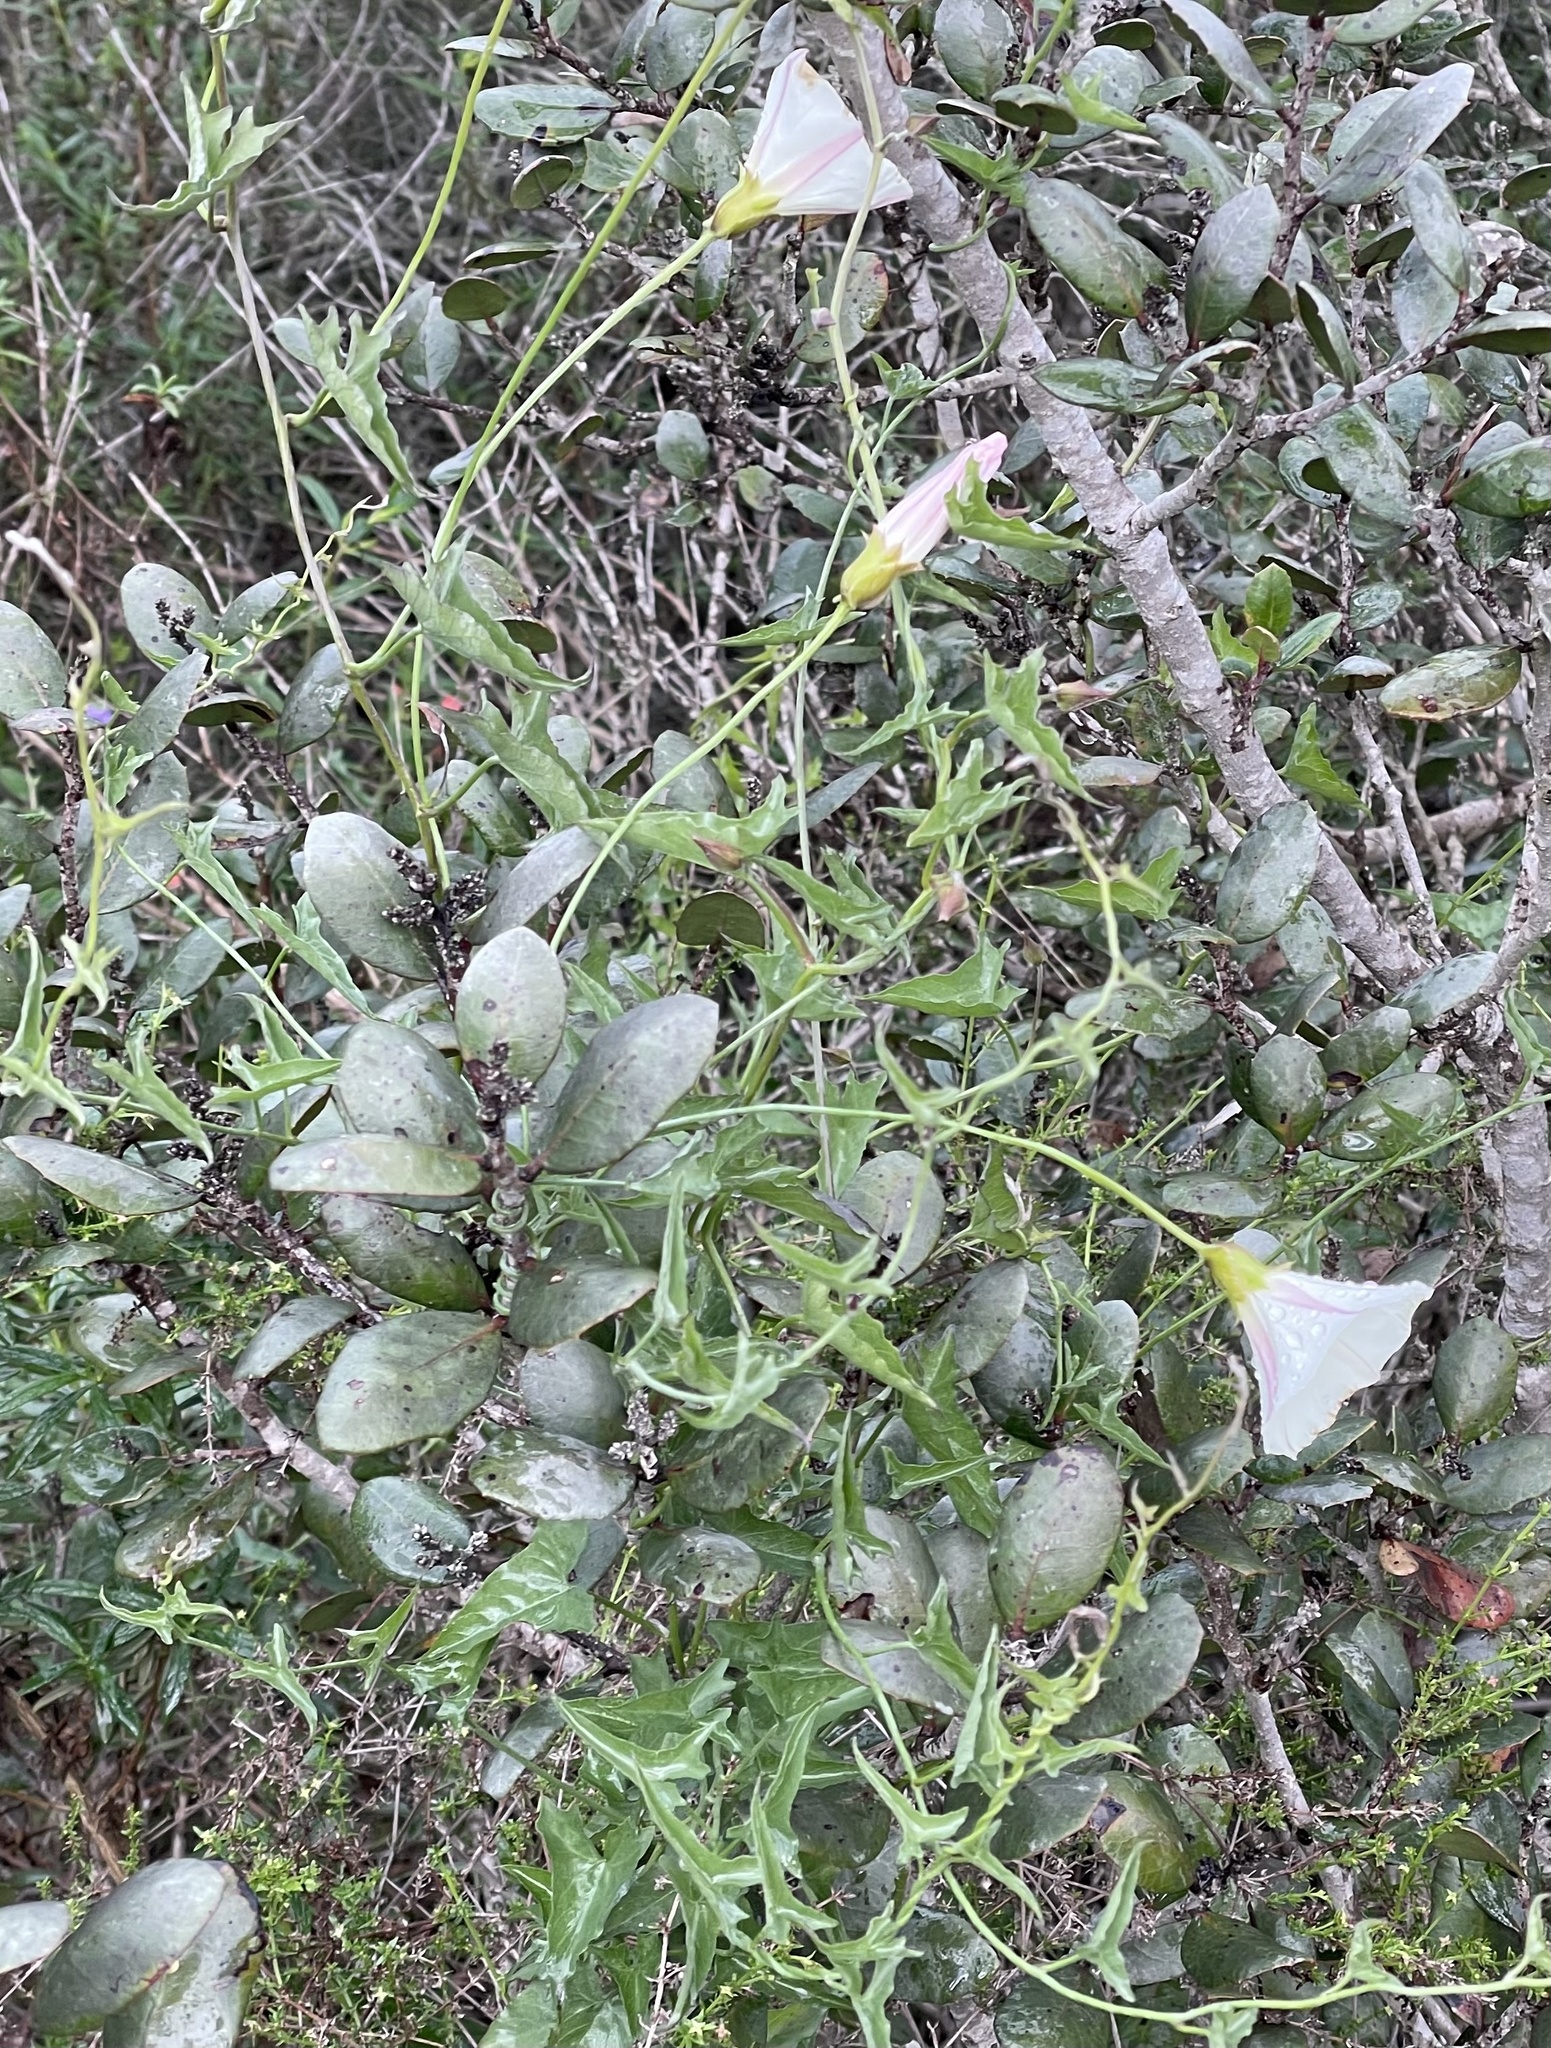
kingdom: Plantae
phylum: Tracheophyta
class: Magnoliopsida
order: Solanales
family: Convolvulaceae
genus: Calystegia
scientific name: Calystegia macrostegia
